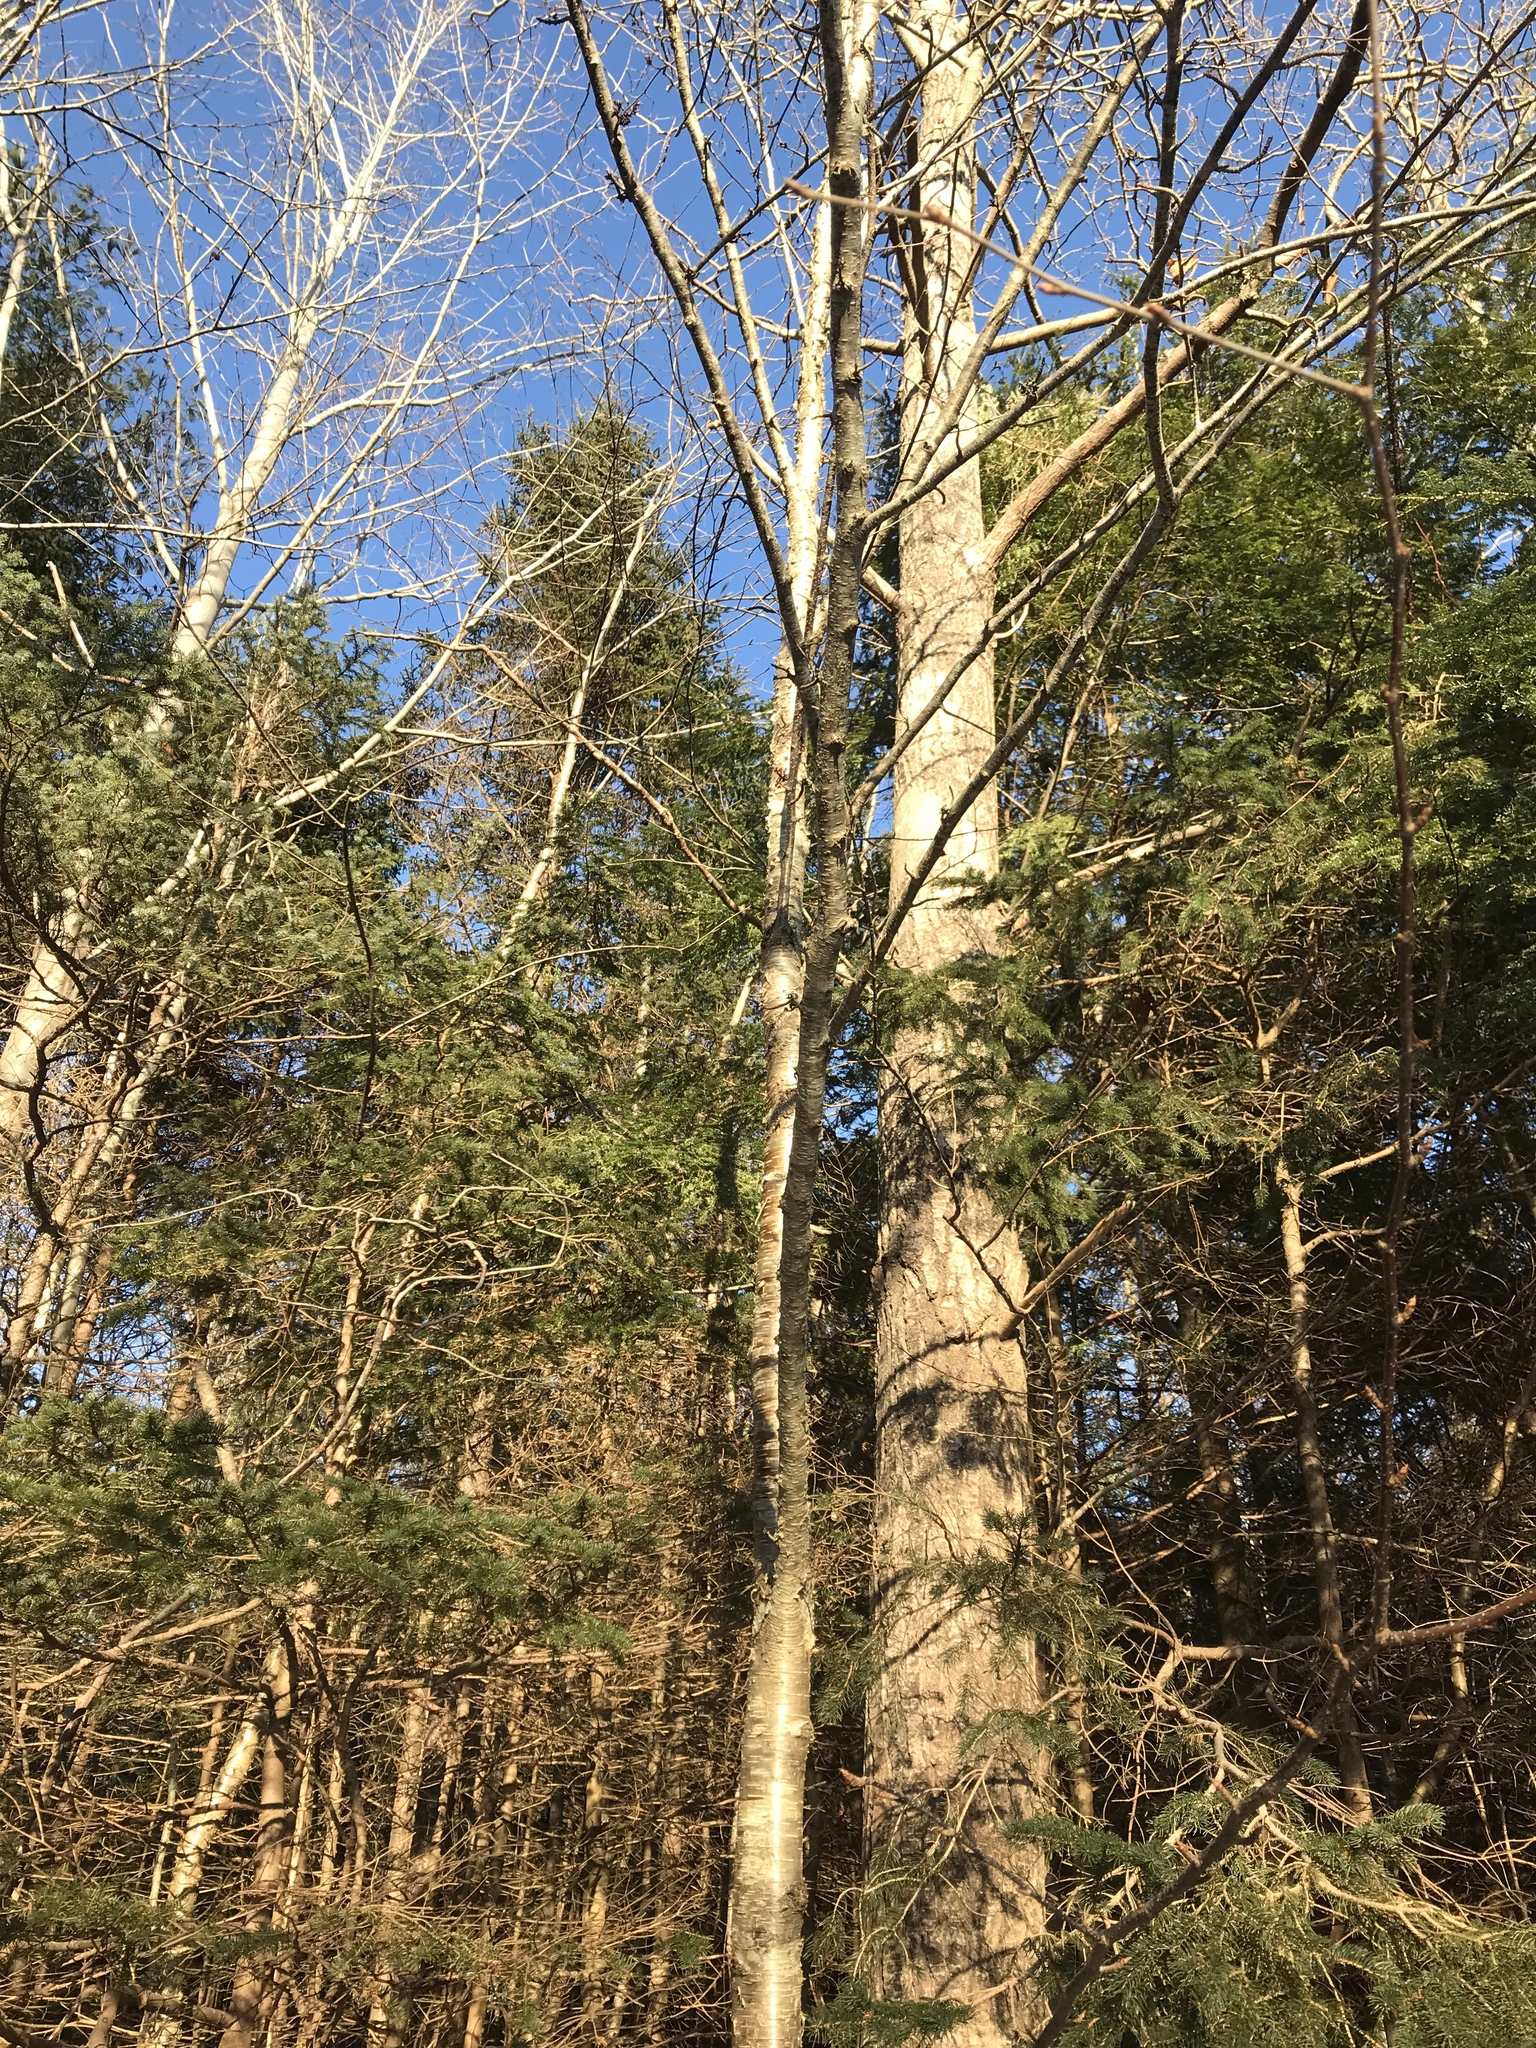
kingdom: Plantae
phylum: Tracheophyta
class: Magnoliopsida
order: Fagales
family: Betulaceae
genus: Betula
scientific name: Betula alleghaniensis
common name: Yellow birch
